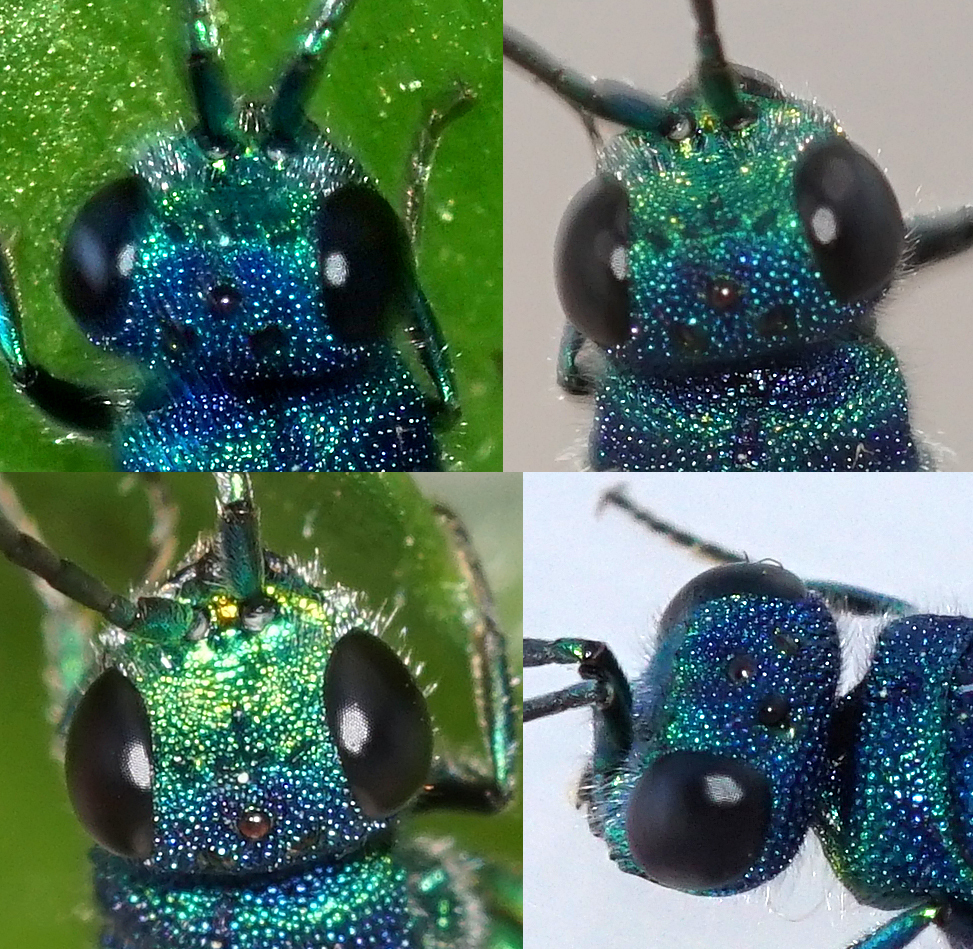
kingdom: Animalia
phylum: Arthropoda
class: Insecta
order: Hymenoptera
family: Chrysididae
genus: Chrysis
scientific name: Chrysis terminata
